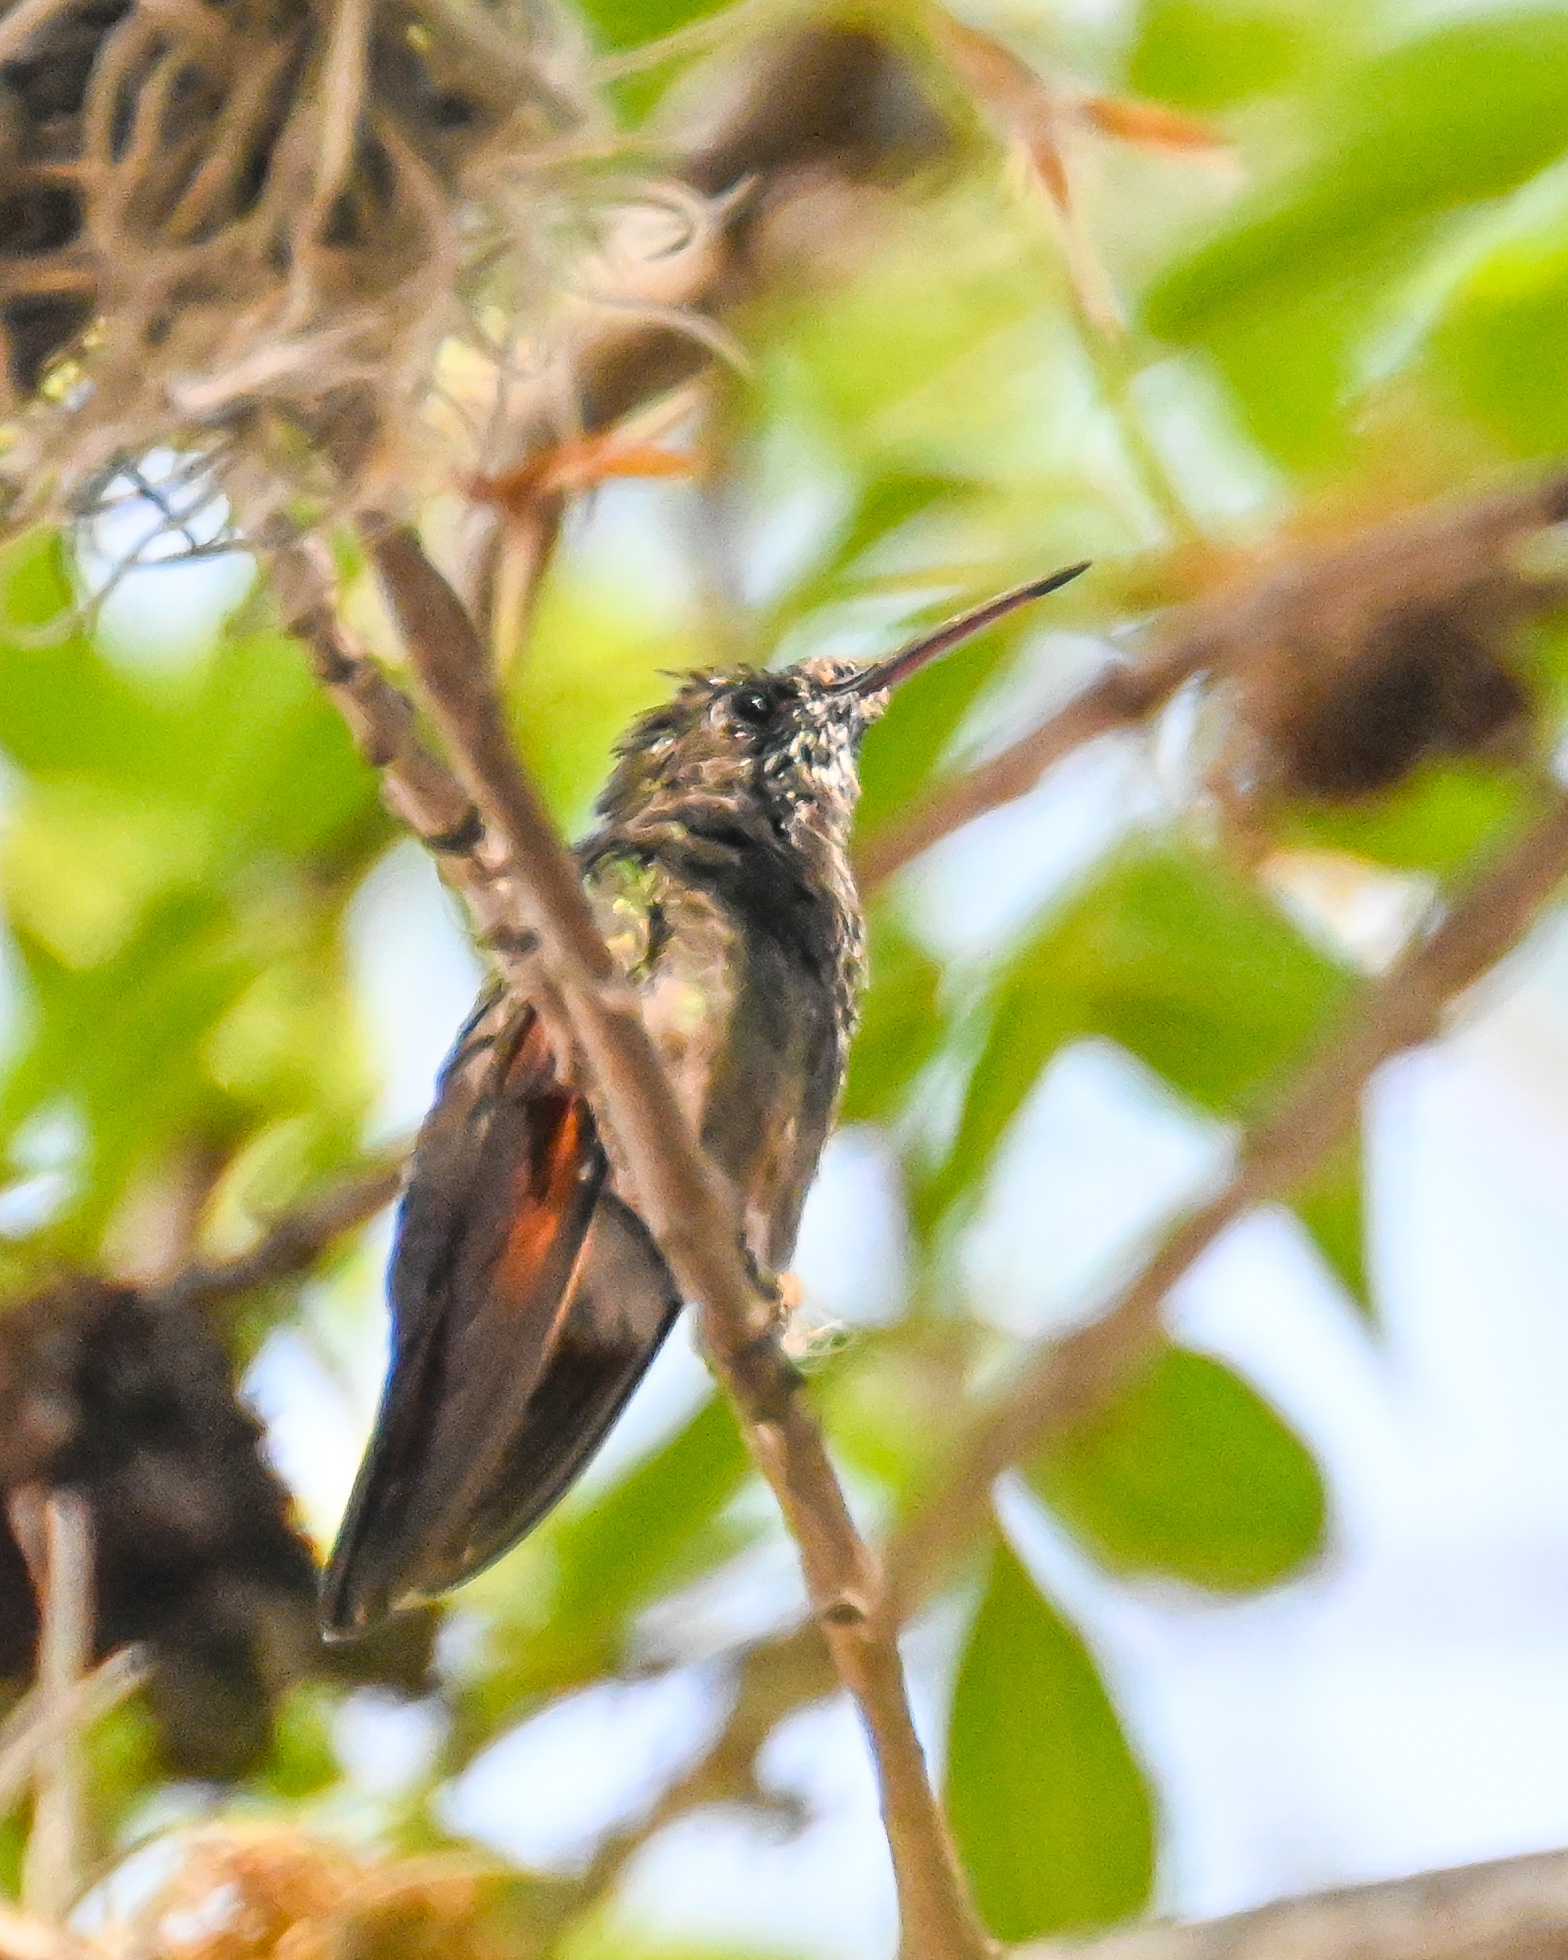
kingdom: Animalia
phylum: Chordata
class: Aves
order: Apodiformes
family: Trochilidae
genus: Saucerottia
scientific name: Saucerottia beryllina
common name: Berylline hummingbird
